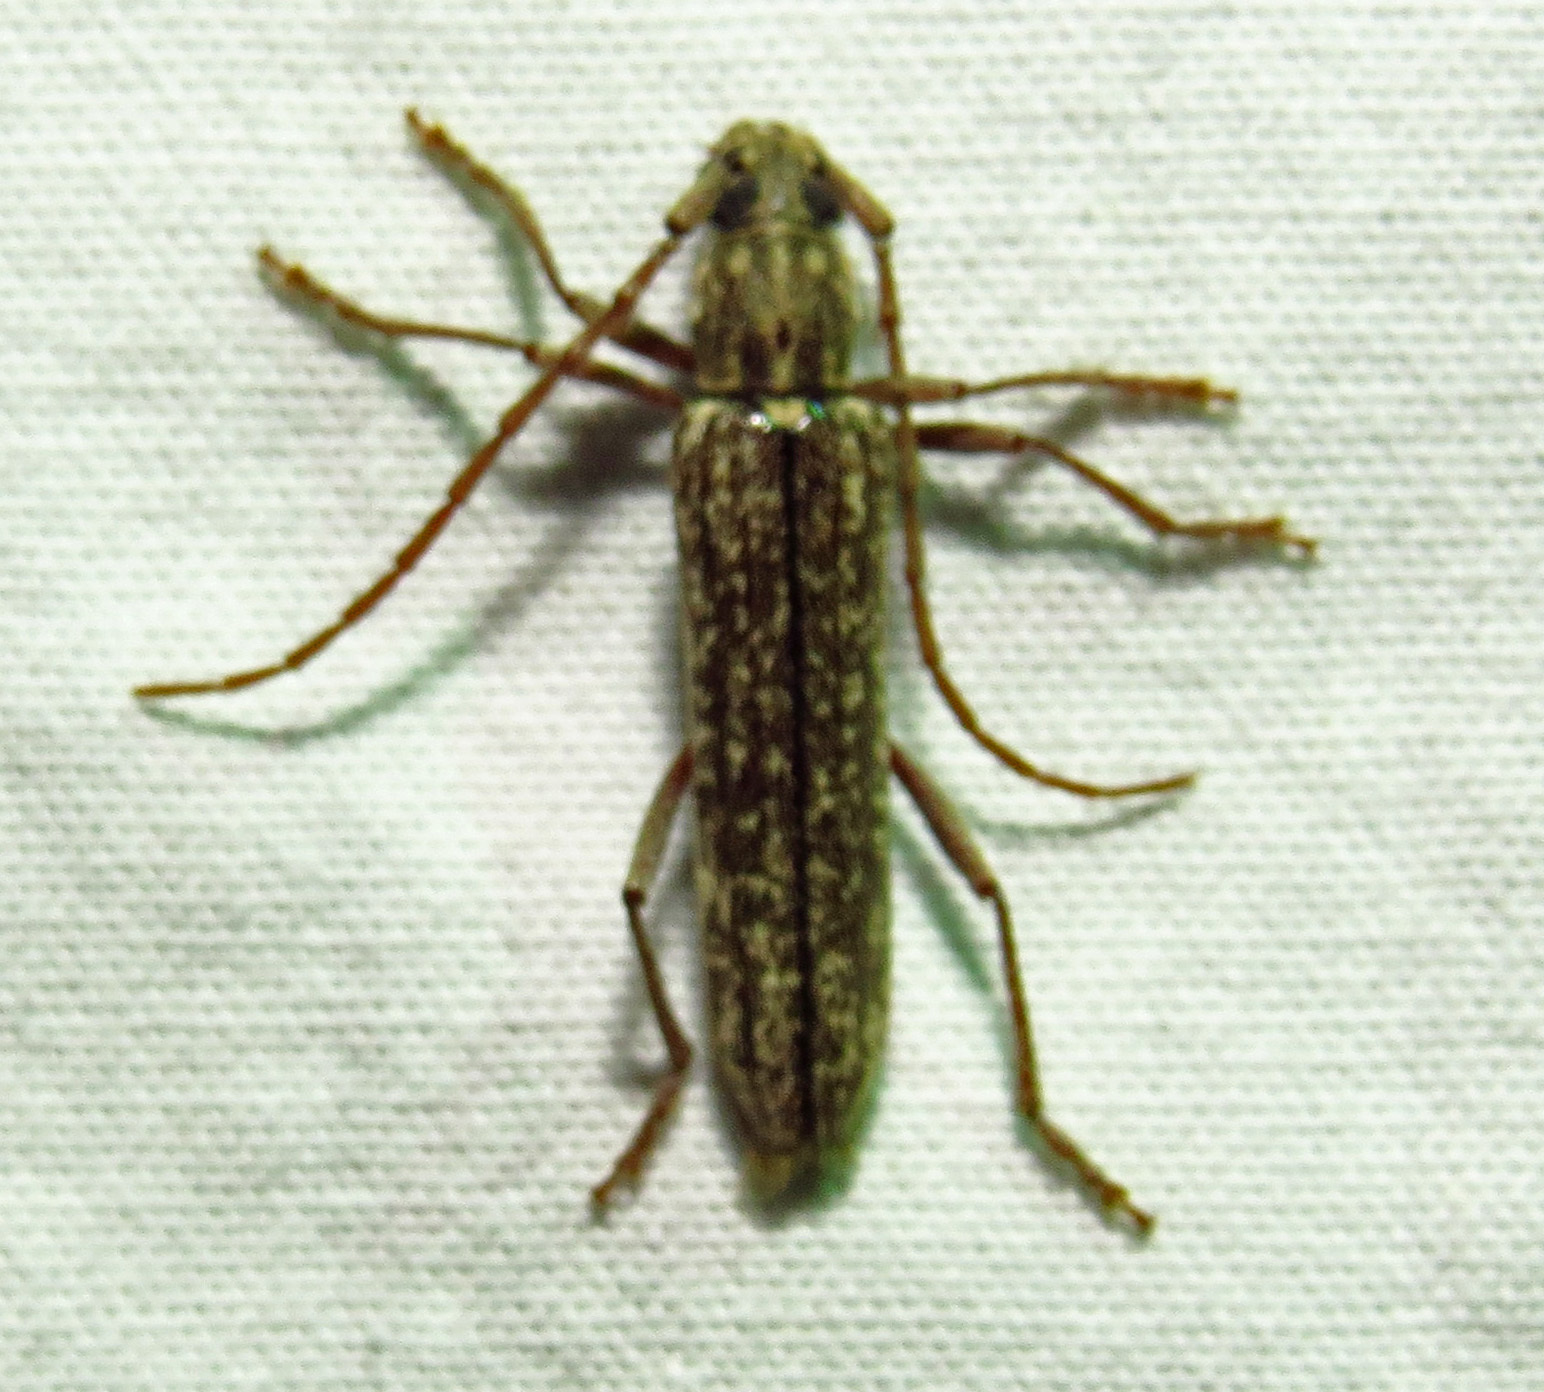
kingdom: Animalia
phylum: Arthropoda
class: Insecta
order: Coleoptera
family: Cerambycidae
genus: Anelaphus
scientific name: Anelaphus villosus
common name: Twig pruner
